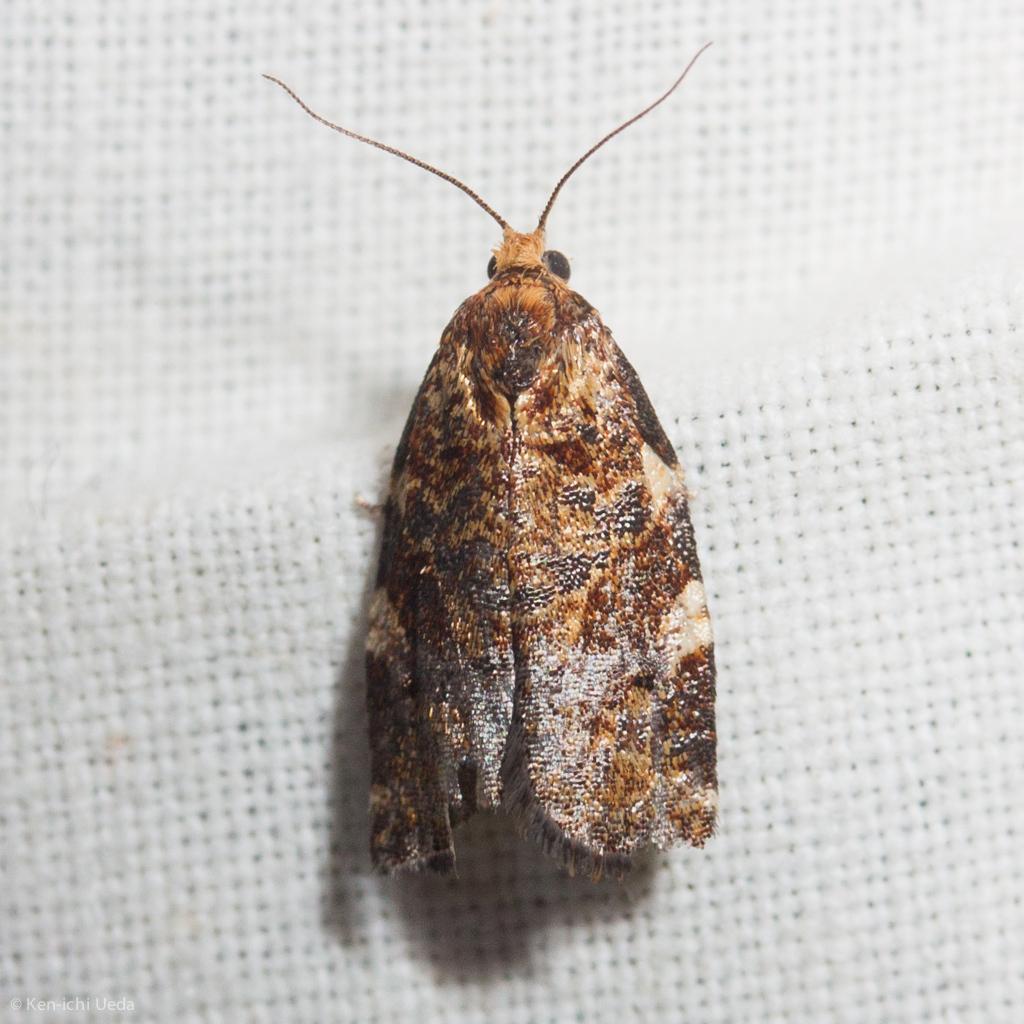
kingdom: Animalia
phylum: Arthropoda
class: Insecta
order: Lepidoptera
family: Tortricidae
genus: Archips
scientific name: Archips argyrospila
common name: Fruit-tree leafroller moth
